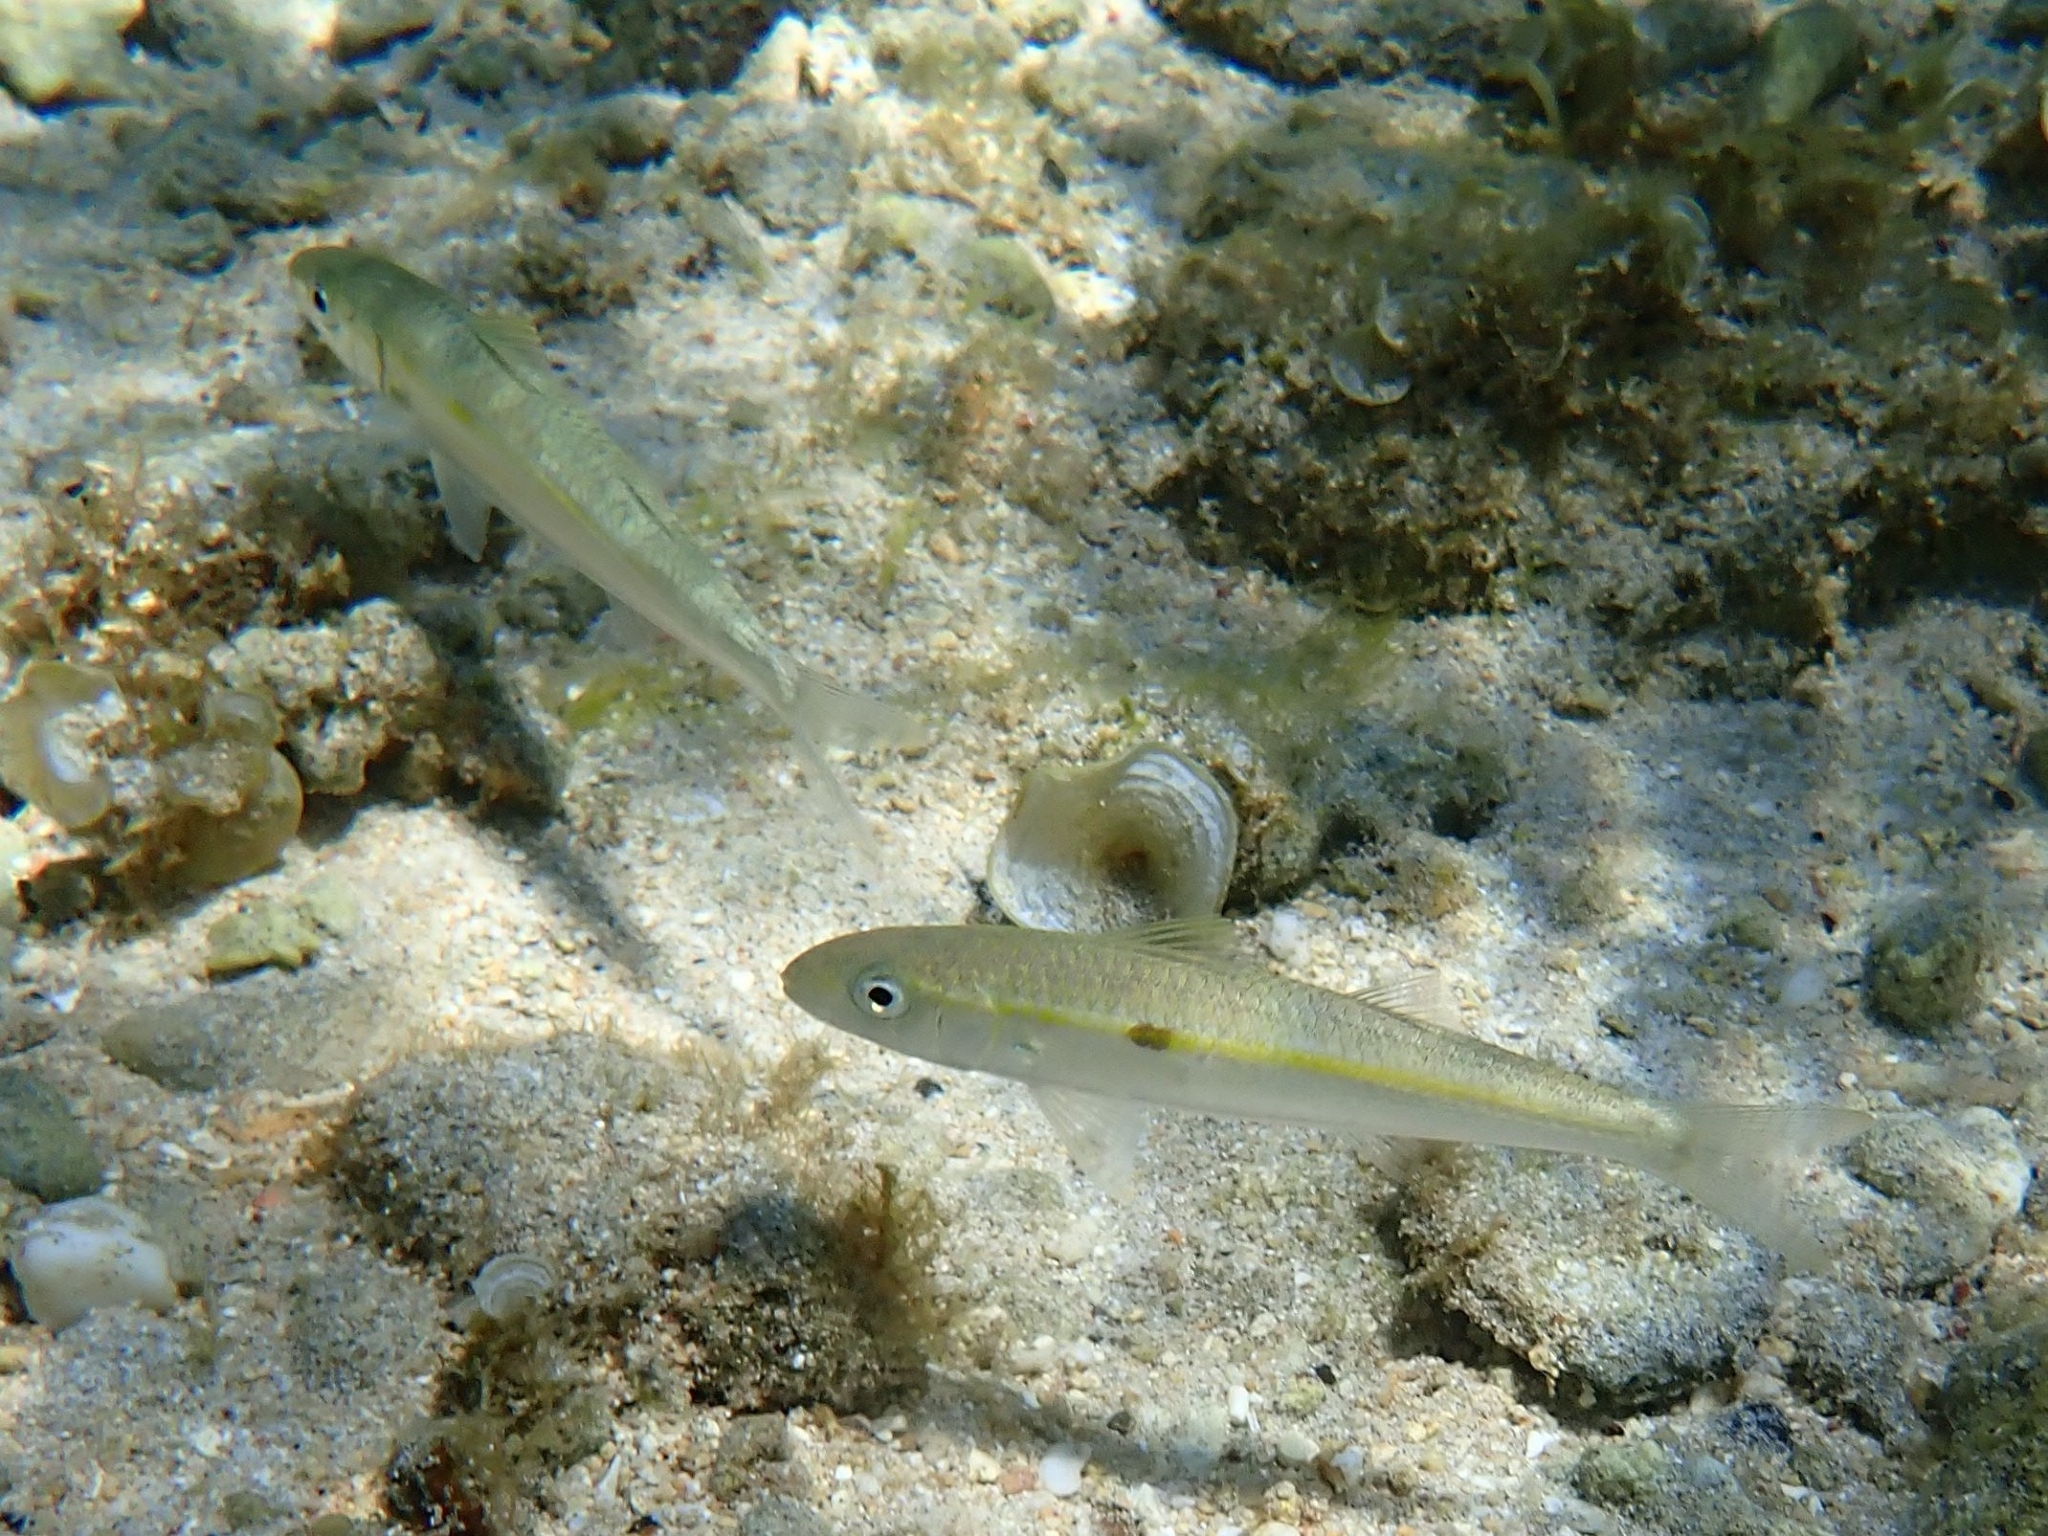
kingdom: Animalia
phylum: Chordata
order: Perciformes
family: Mullidae
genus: Mulloidichthys
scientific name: Mulloidichthys flavolineatus
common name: Yellowstripe goatfish
